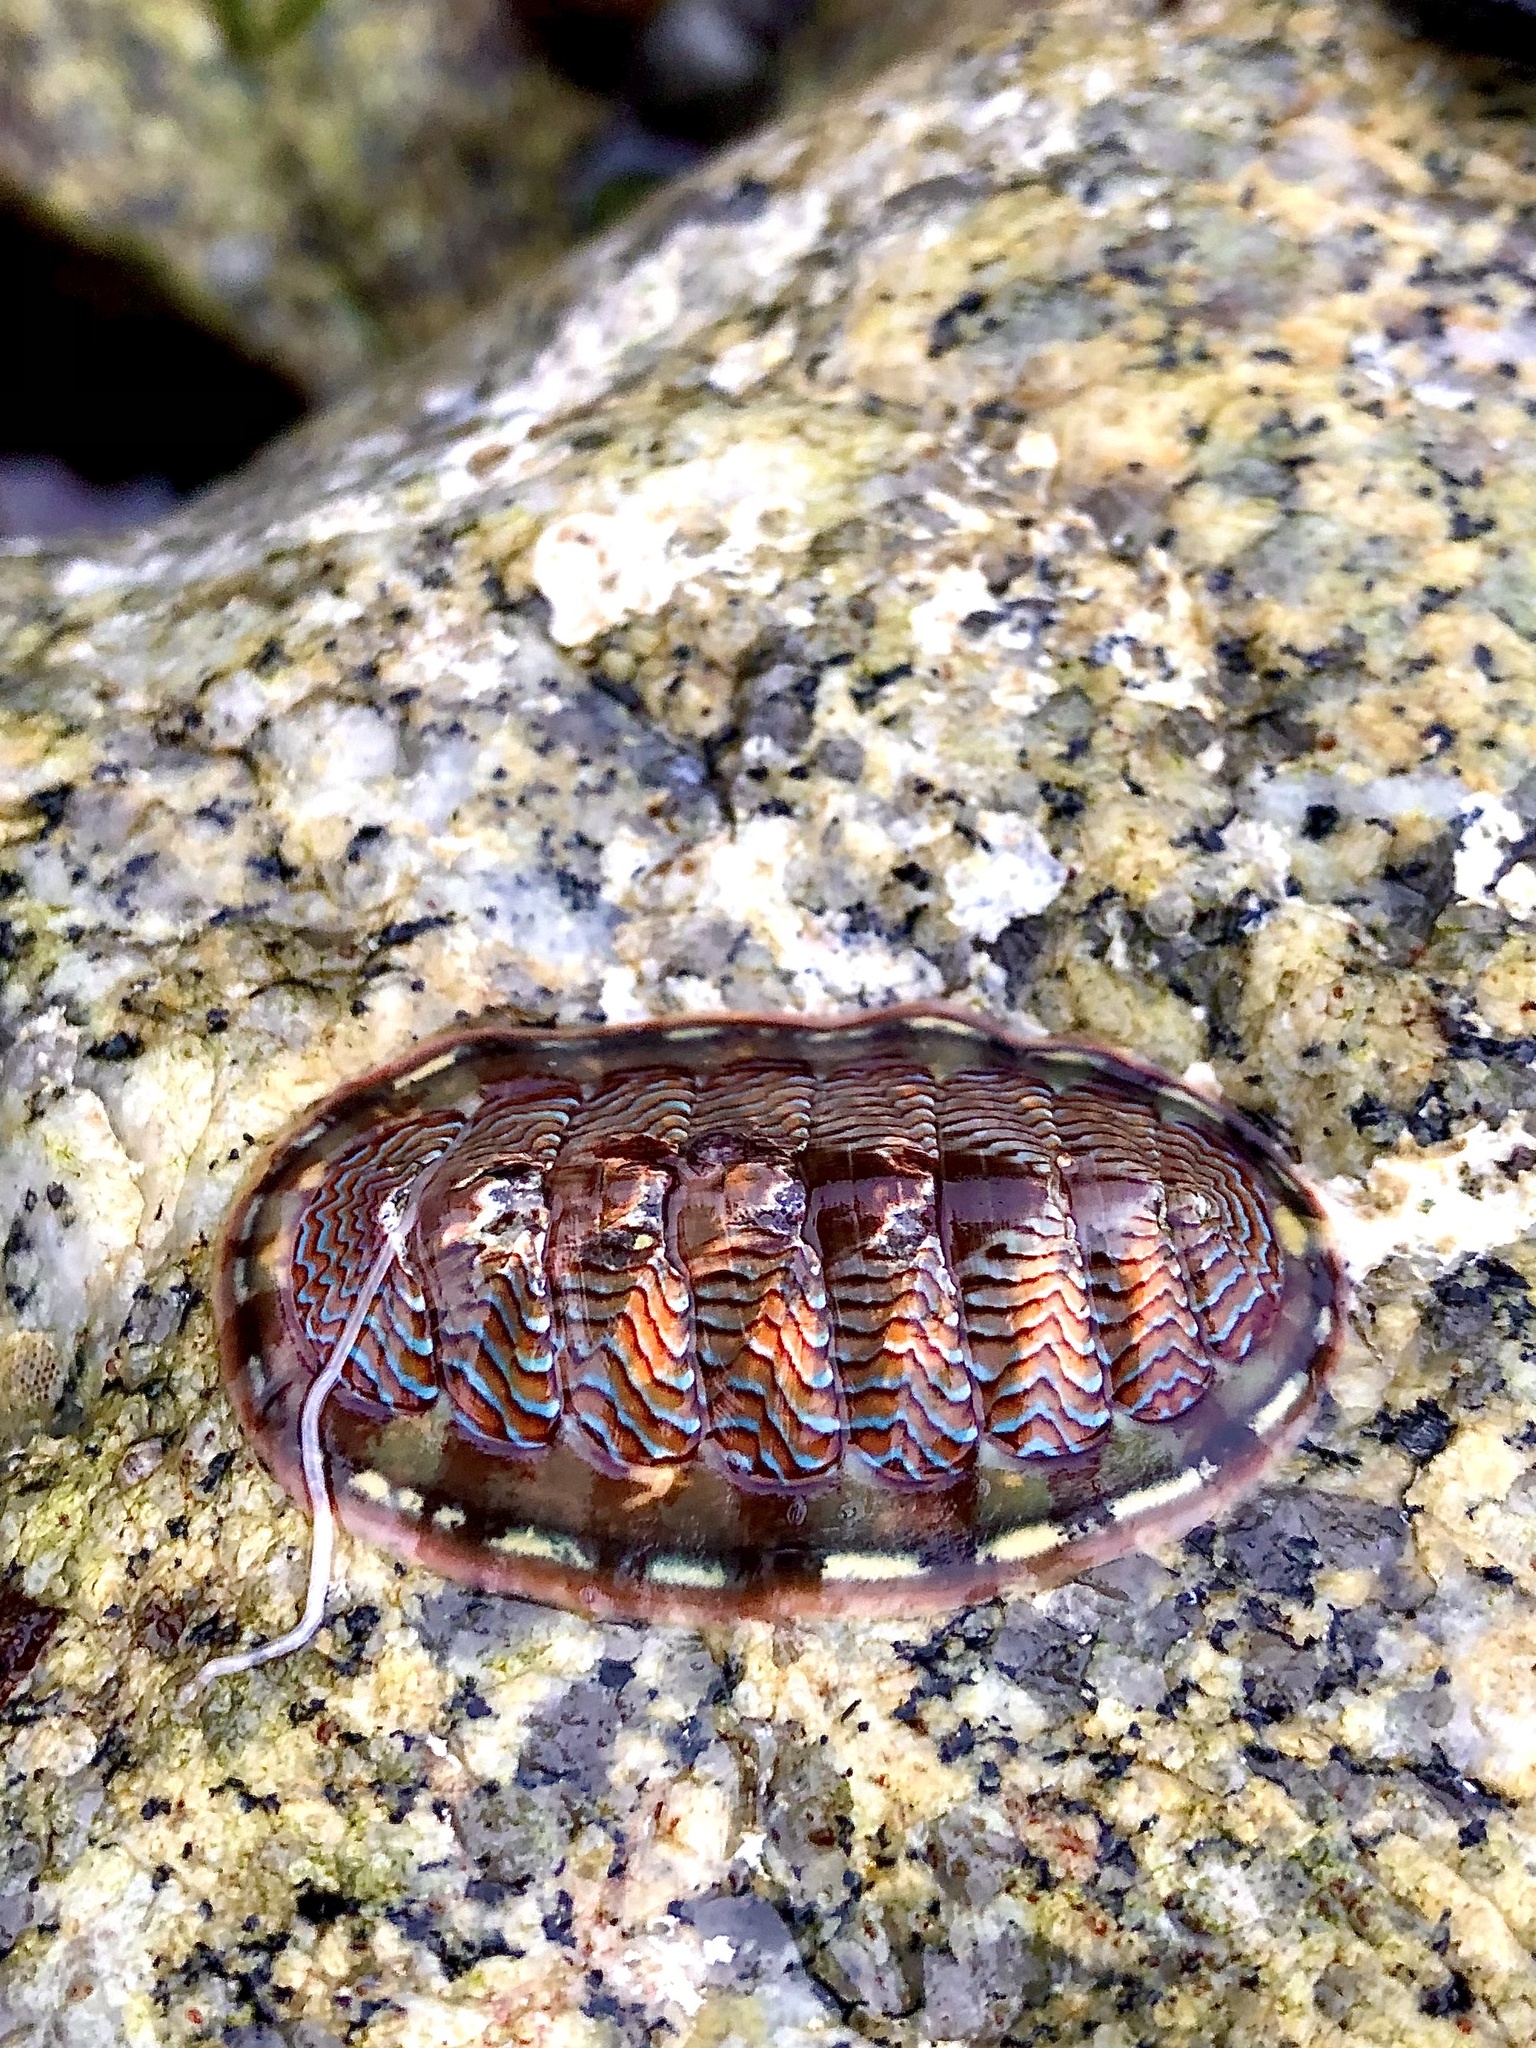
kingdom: Animalia
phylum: Mollusca
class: Polyplacophora
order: Chitonida
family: Tonicellidae
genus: Tonicella
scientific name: Tonicella lokii
